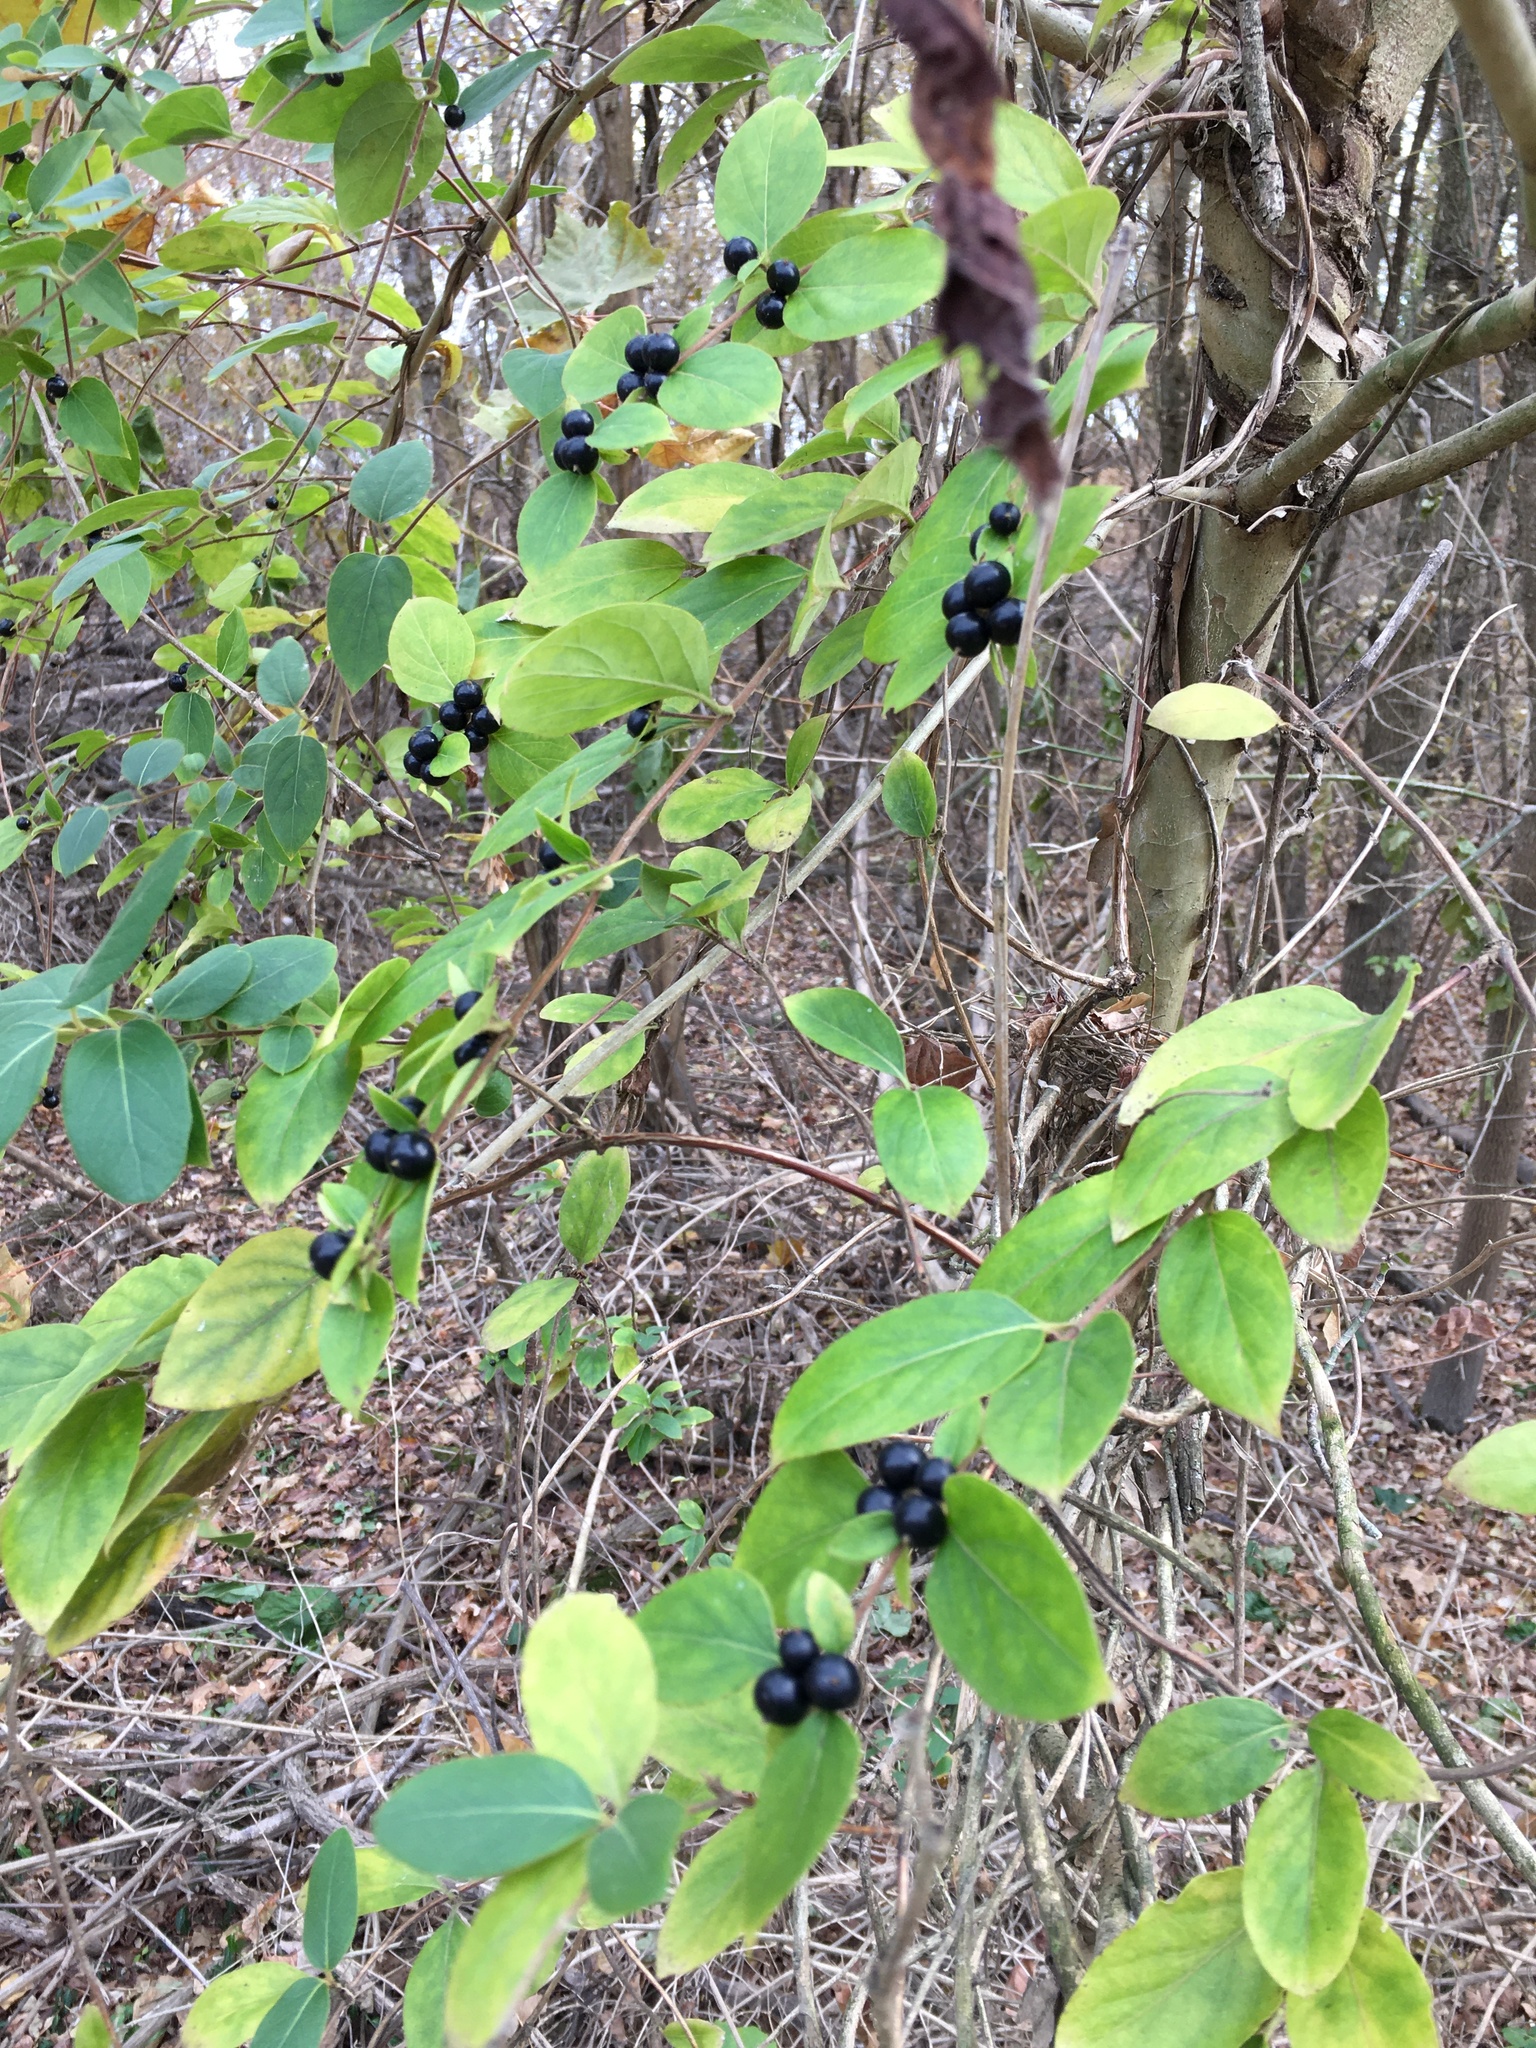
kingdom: Plantae
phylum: Tracheophyta
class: Magnoliopsida
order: Dipsacales
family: Caprifoliaceae
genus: Lonicera
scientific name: Lonicera japonica
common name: Japanese honeysuckle
